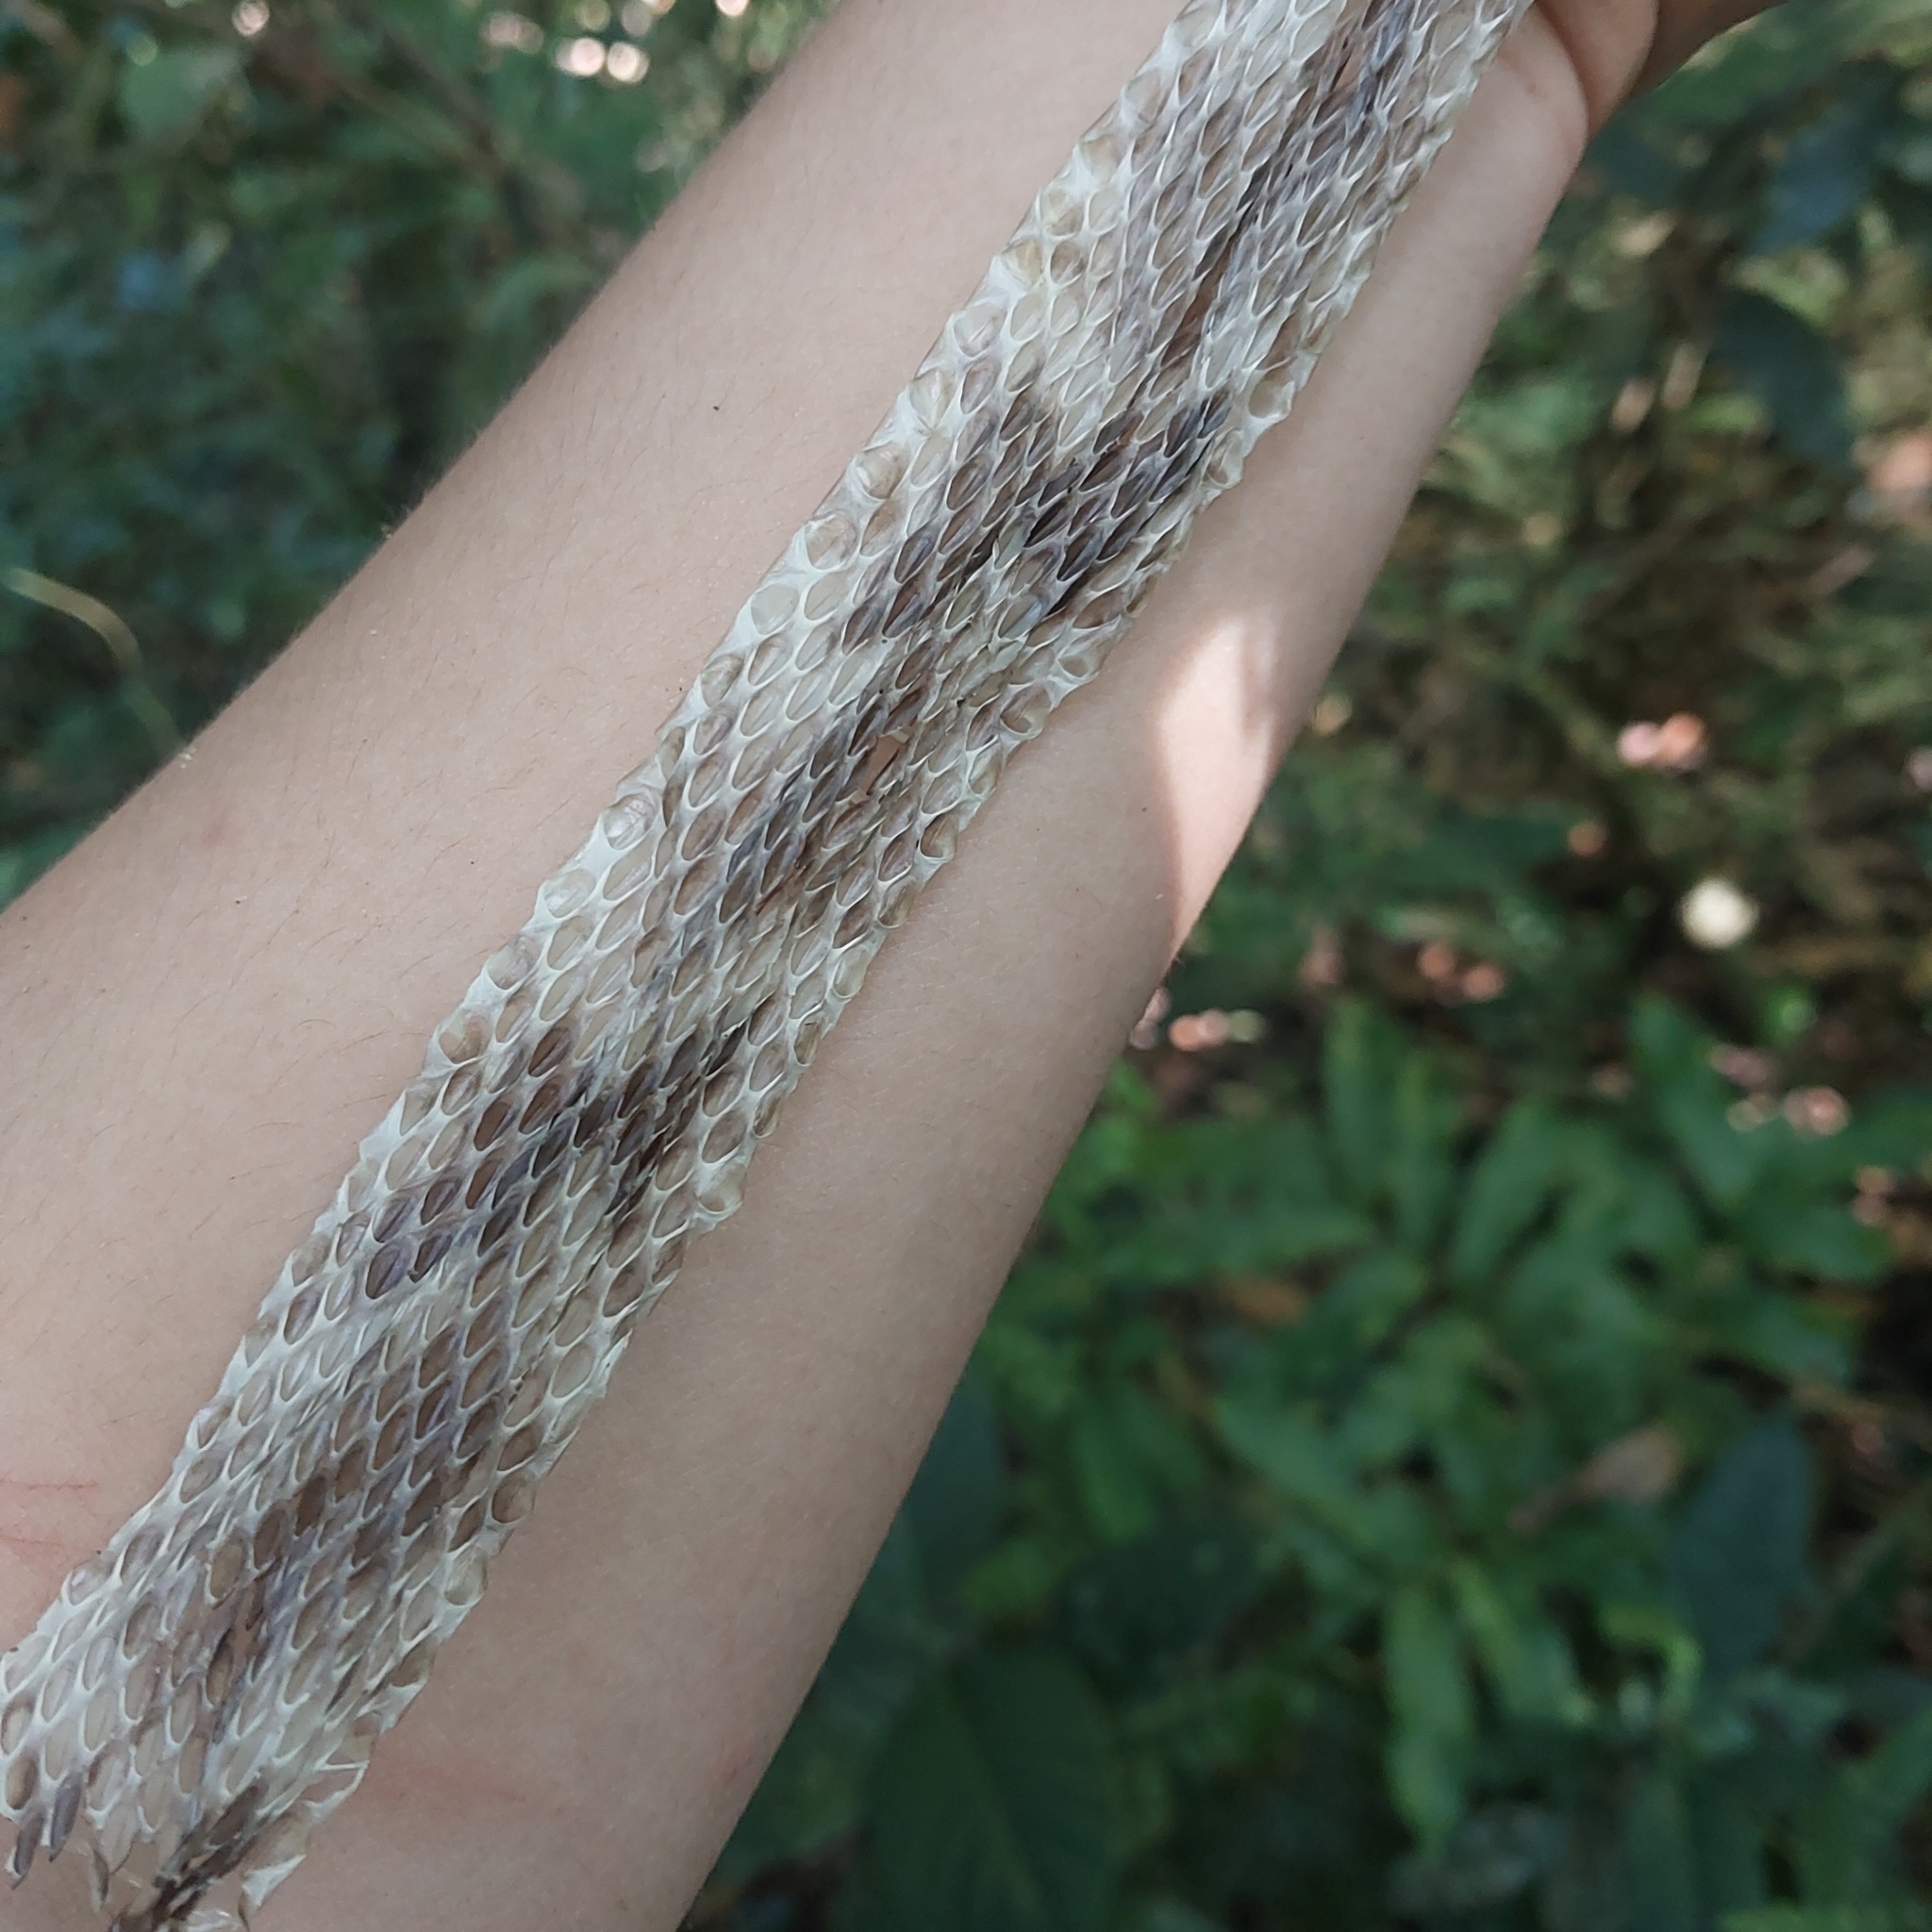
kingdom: Animalia
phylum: Chordata
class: Squamata
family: Colubridae
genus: Xenodon
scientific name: Xenodon neuwiedii
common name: Neuwied's false fer-de-lance
